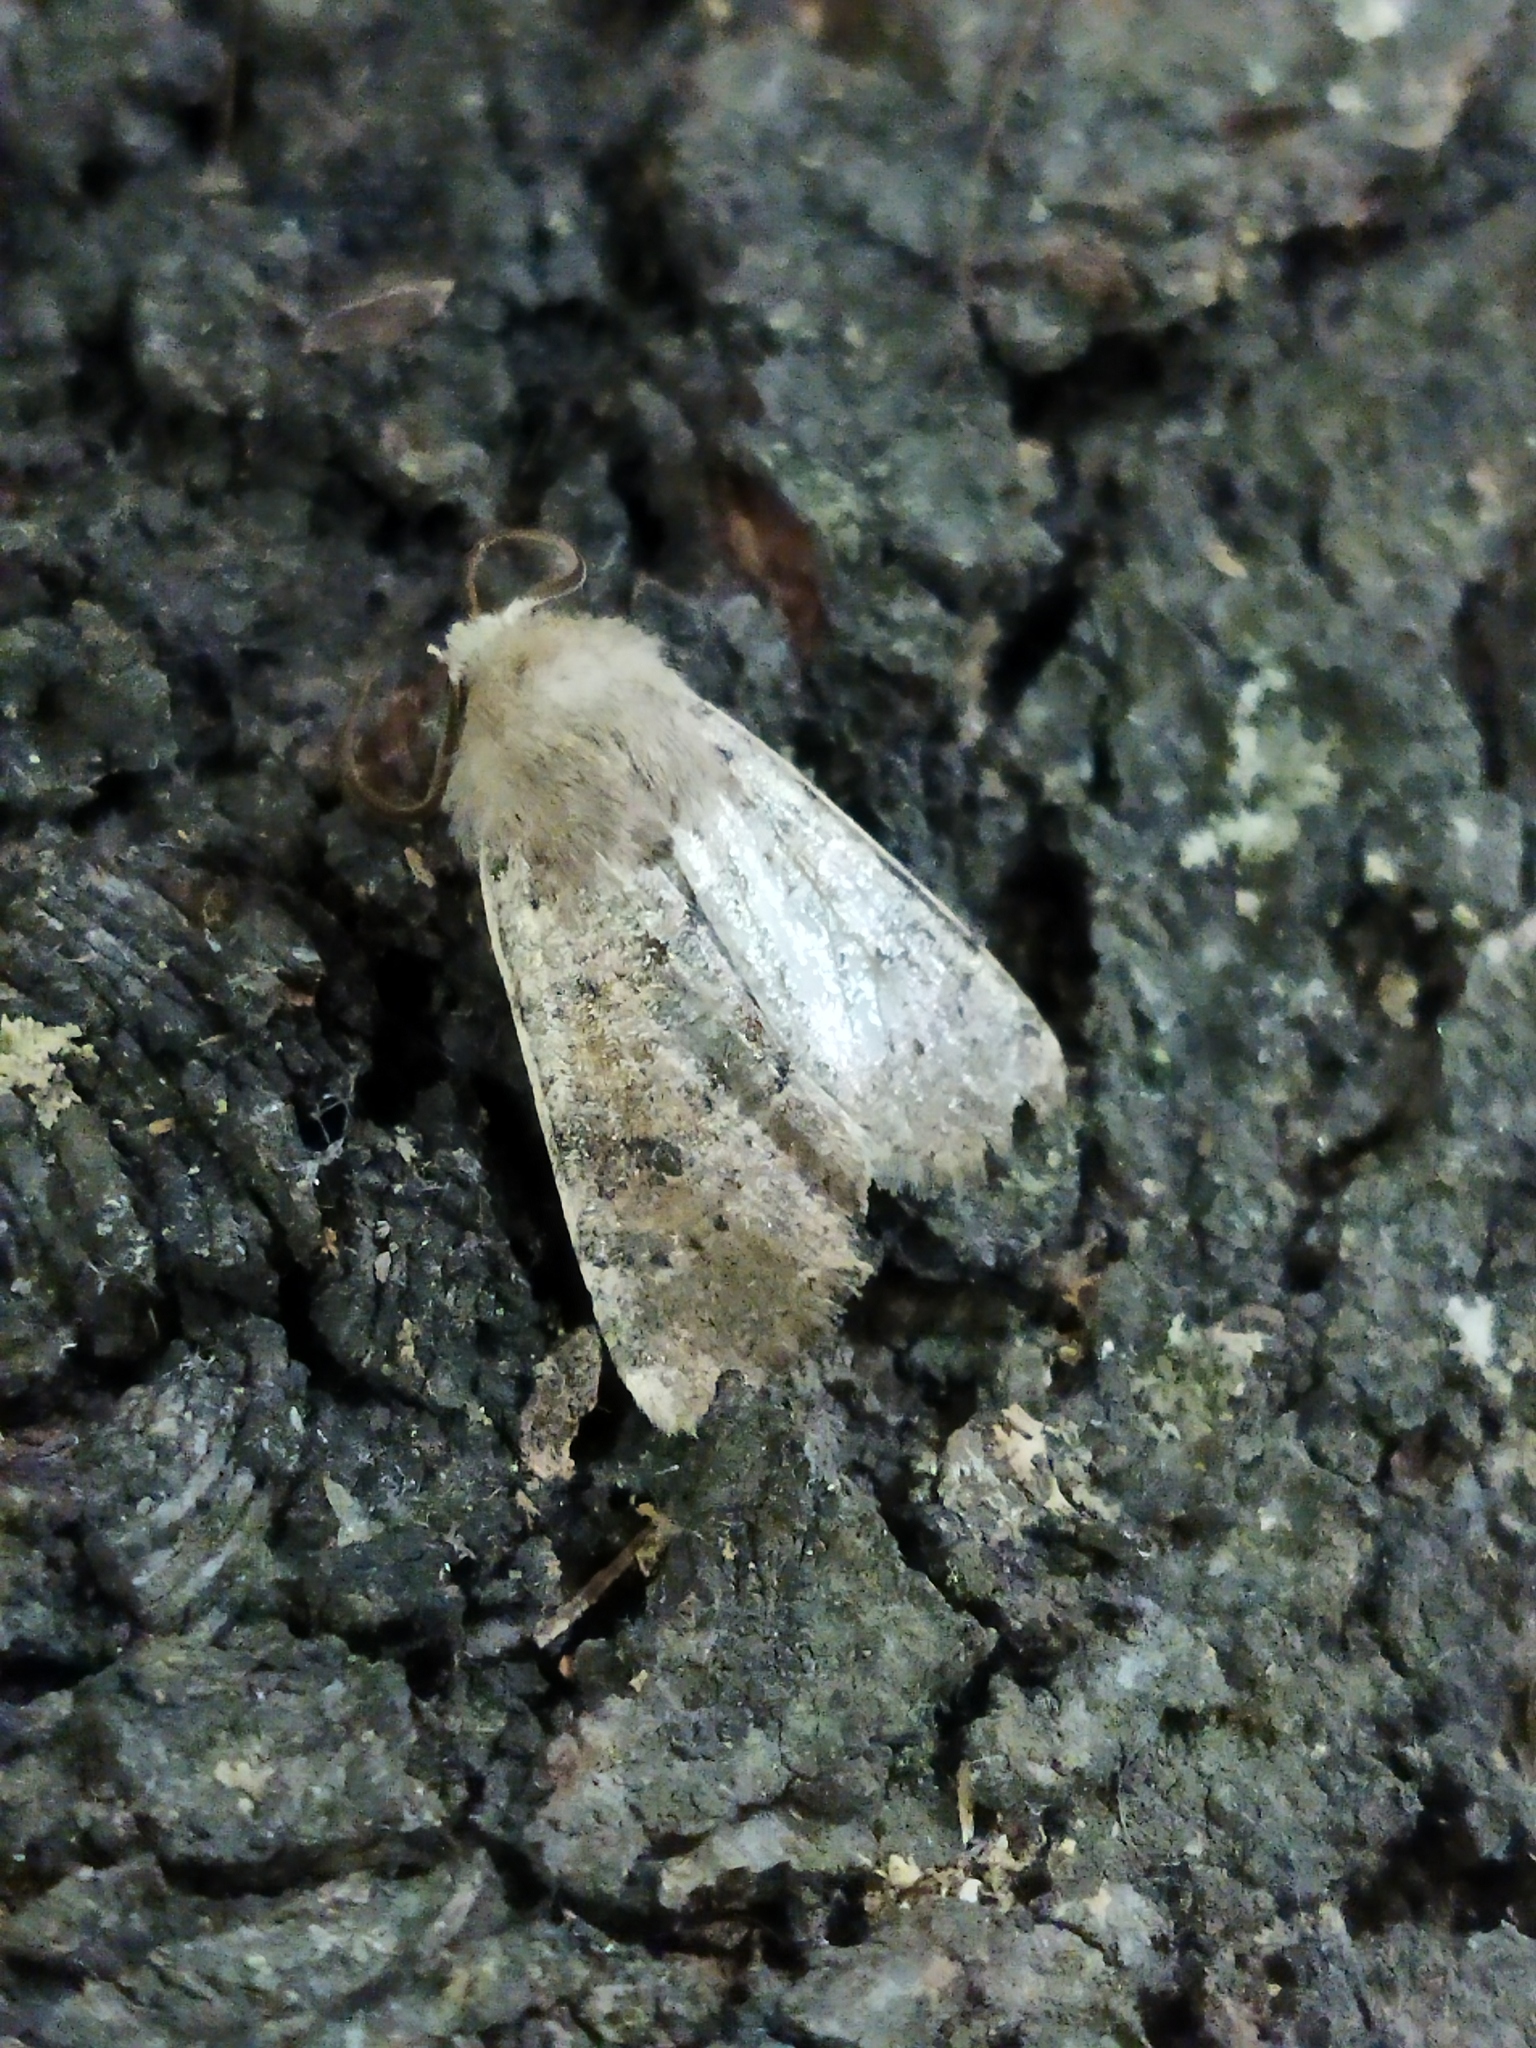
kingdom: Animalia
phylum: Arthropoda
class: Insecta
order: Lepidoptera
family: Noctuidae
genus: Orthosia
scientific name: Orthosia cruda
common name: Small quaker
